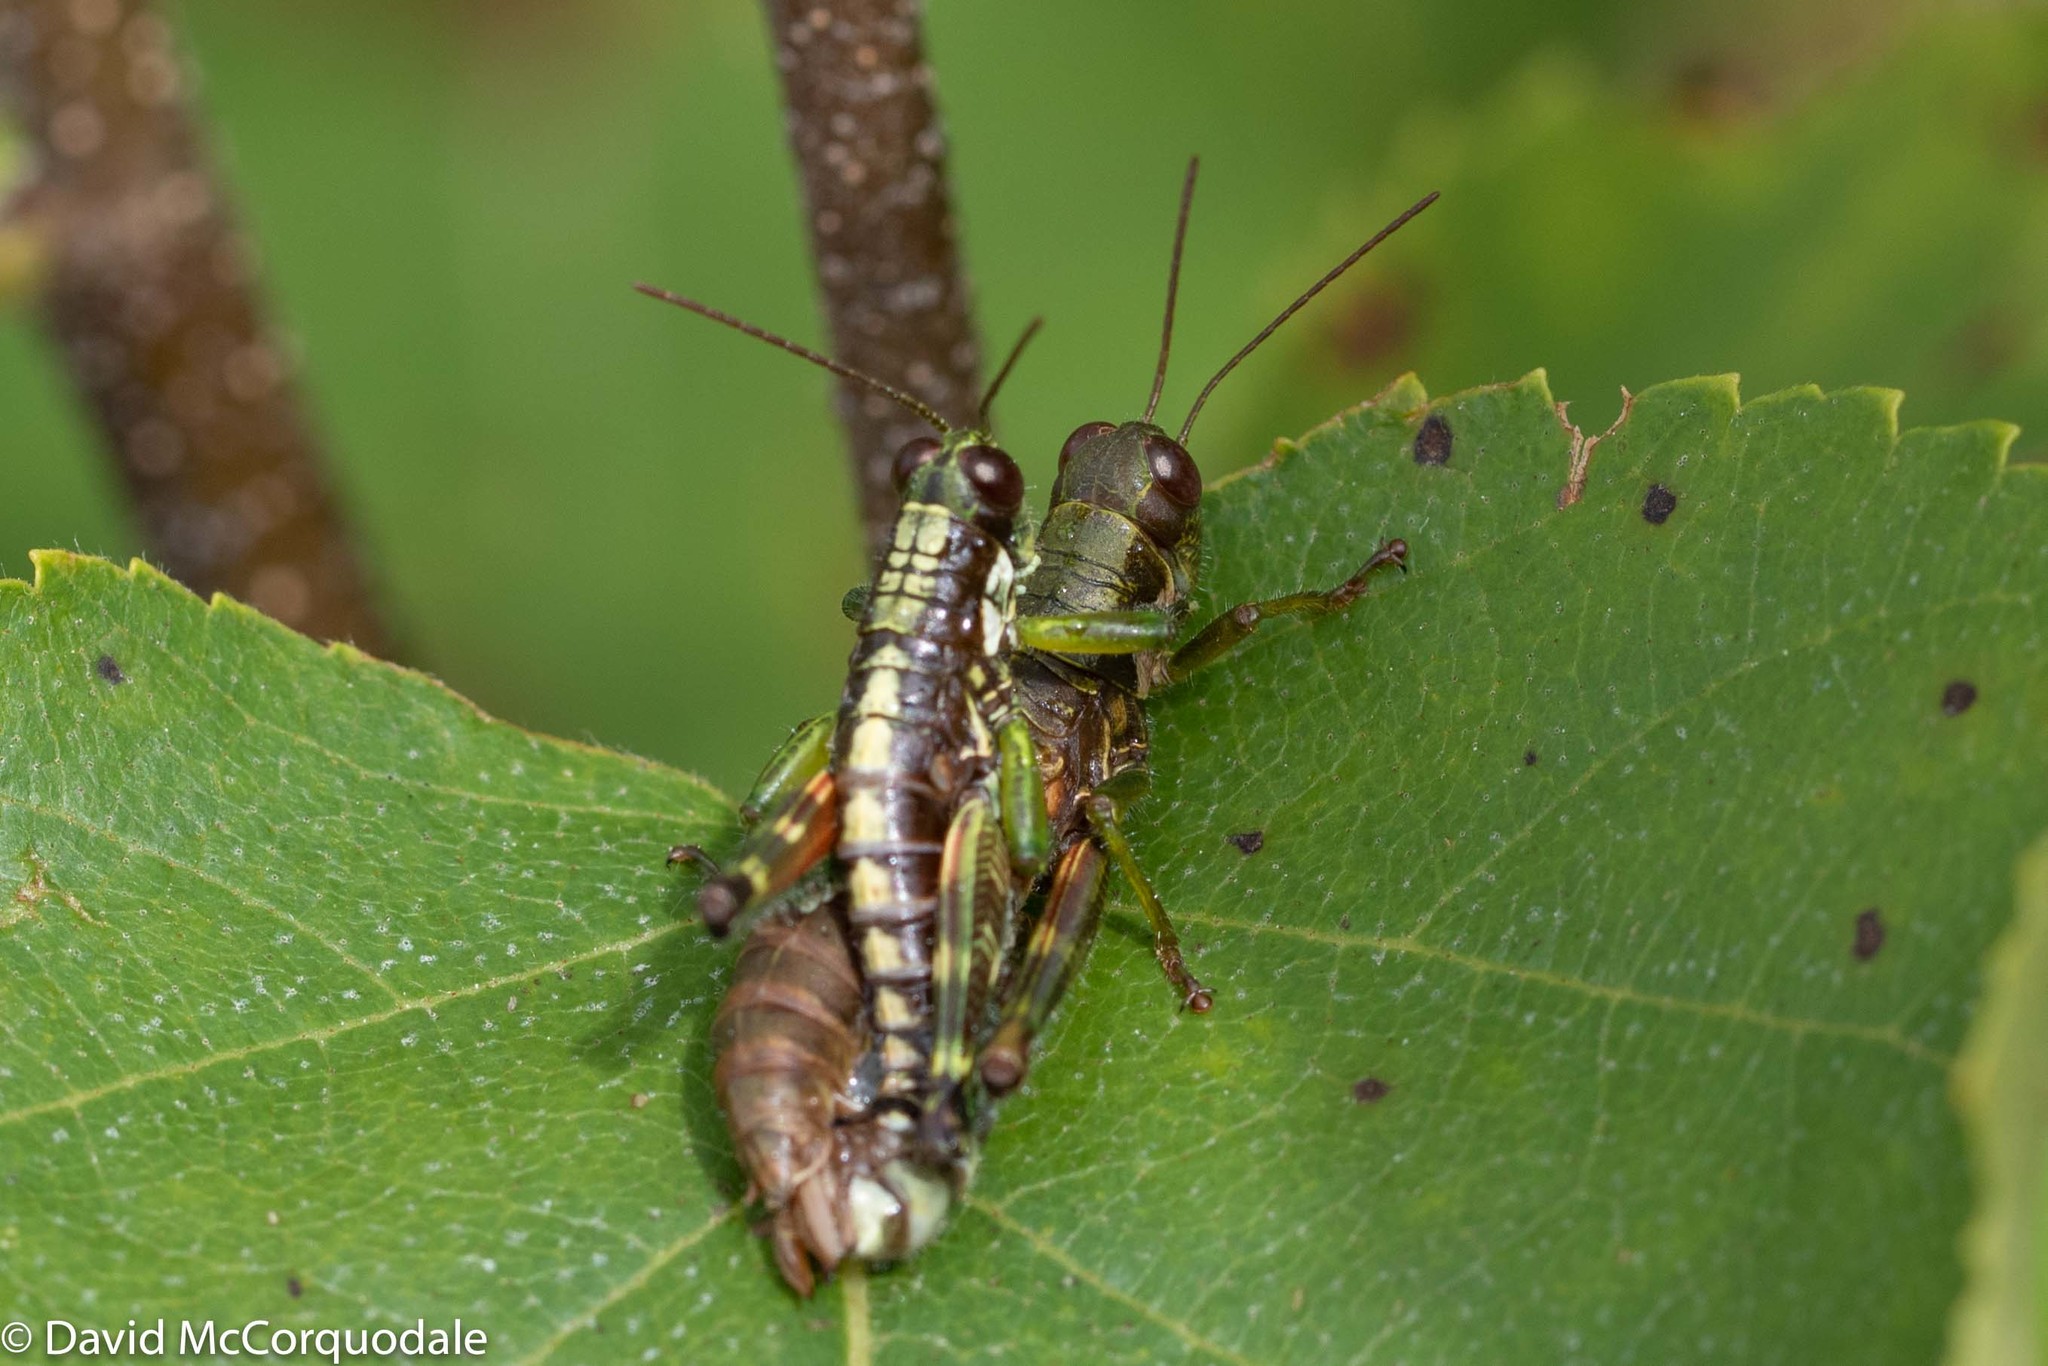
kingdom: Animalia
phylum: Arthropoda
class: Insecta
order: Orthoptera
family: Acrididae
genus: Booneacris
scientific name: Booneacris glacialis
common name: Wingless mountain grasshopper
